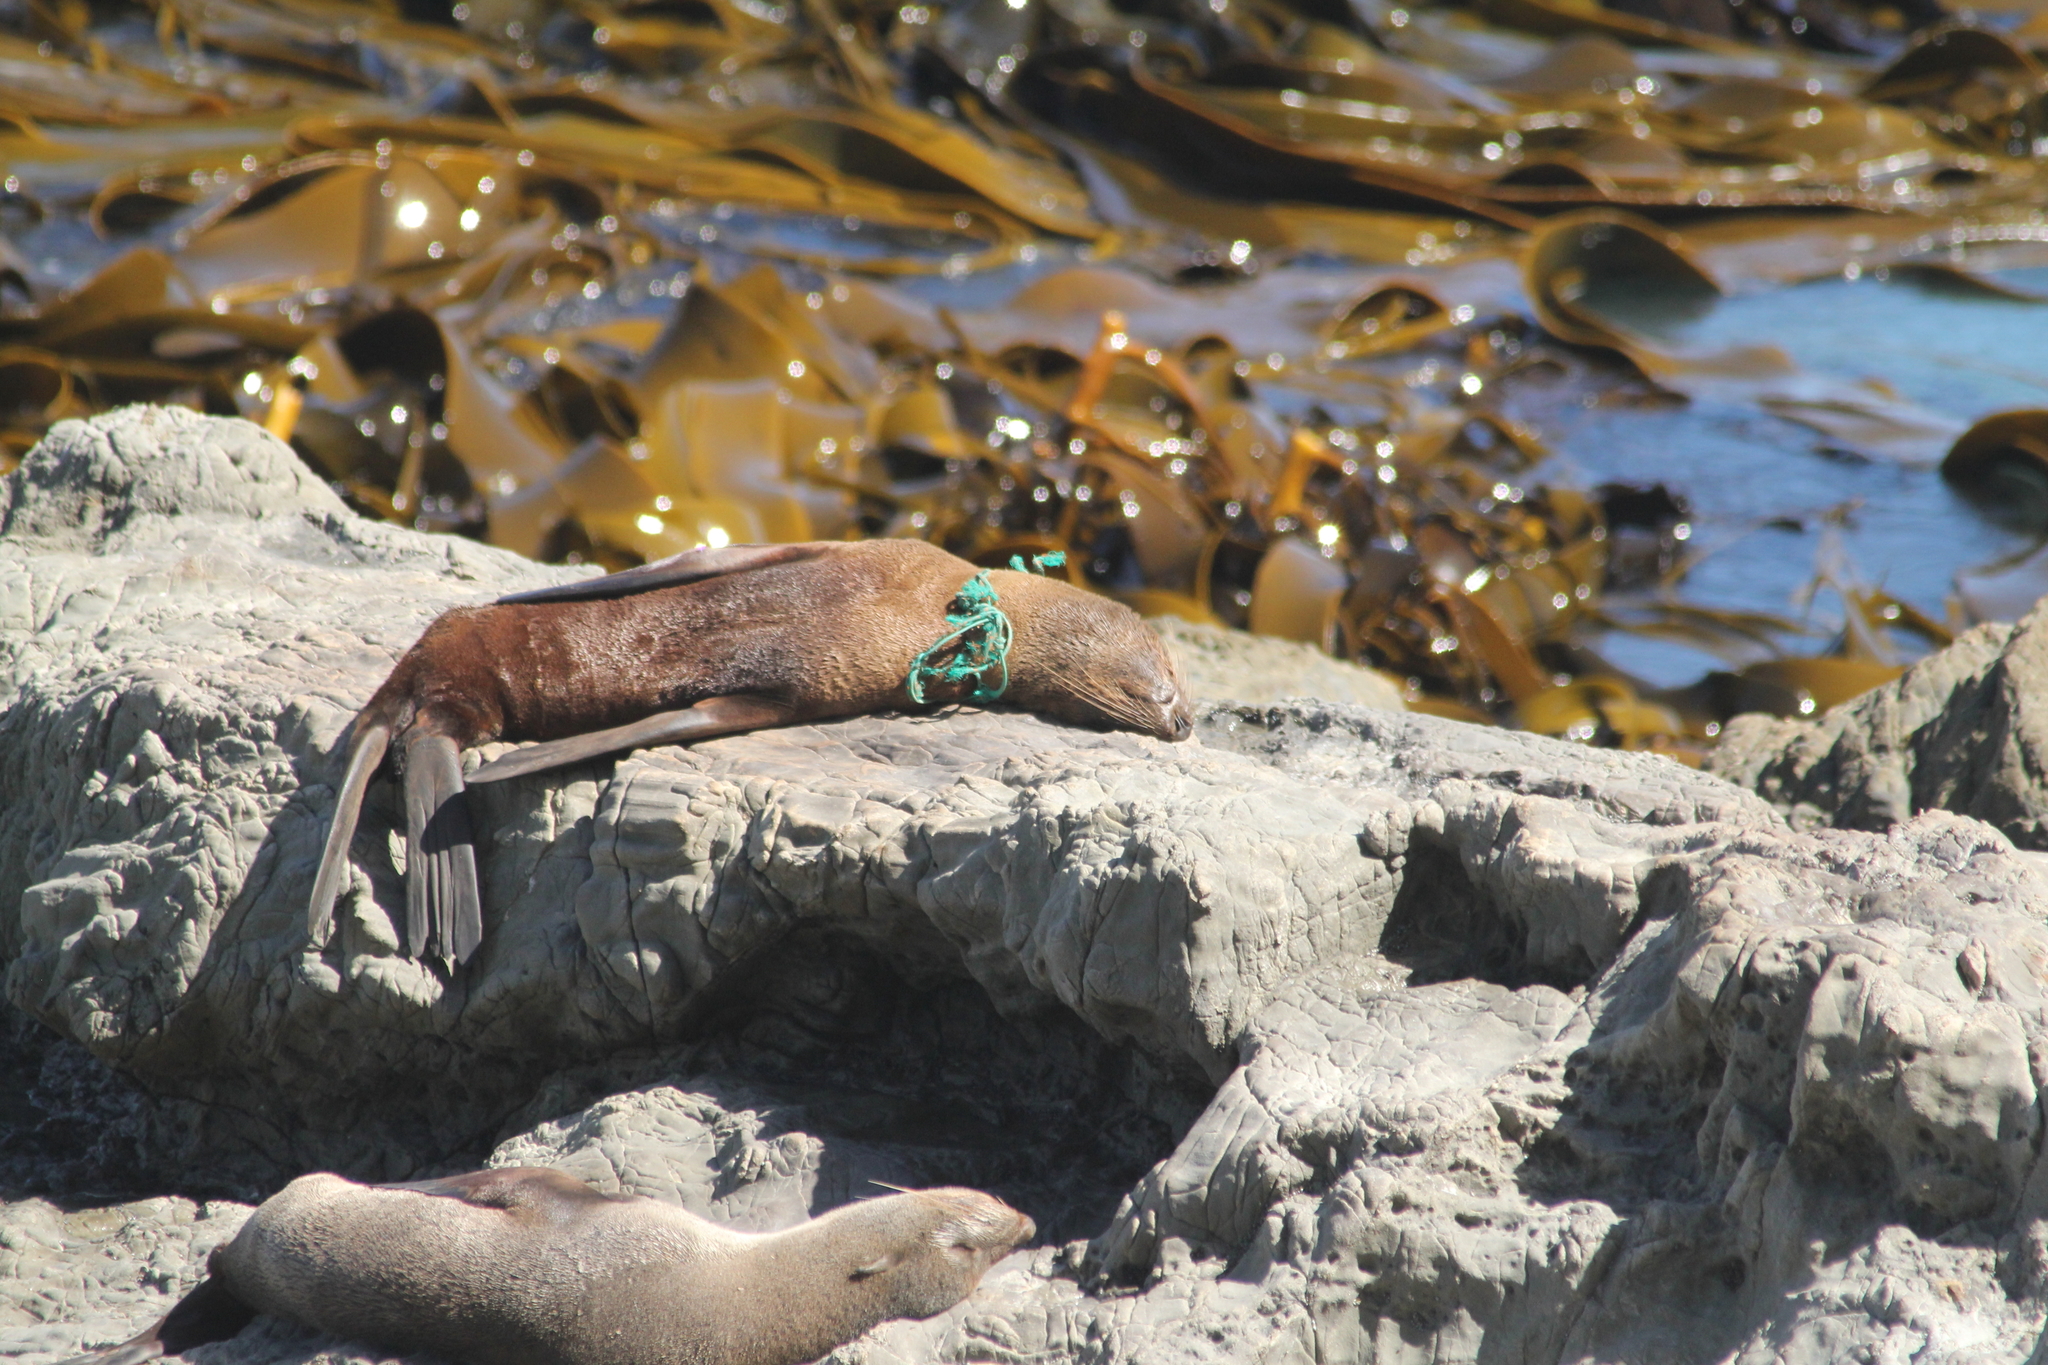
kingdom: Animalia
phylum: Chordata
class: Mammalia
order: Carnivora
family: Otariidae
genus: Arctocephalus
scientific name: Arctocephalus forsteri
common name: New zealand fur seal
